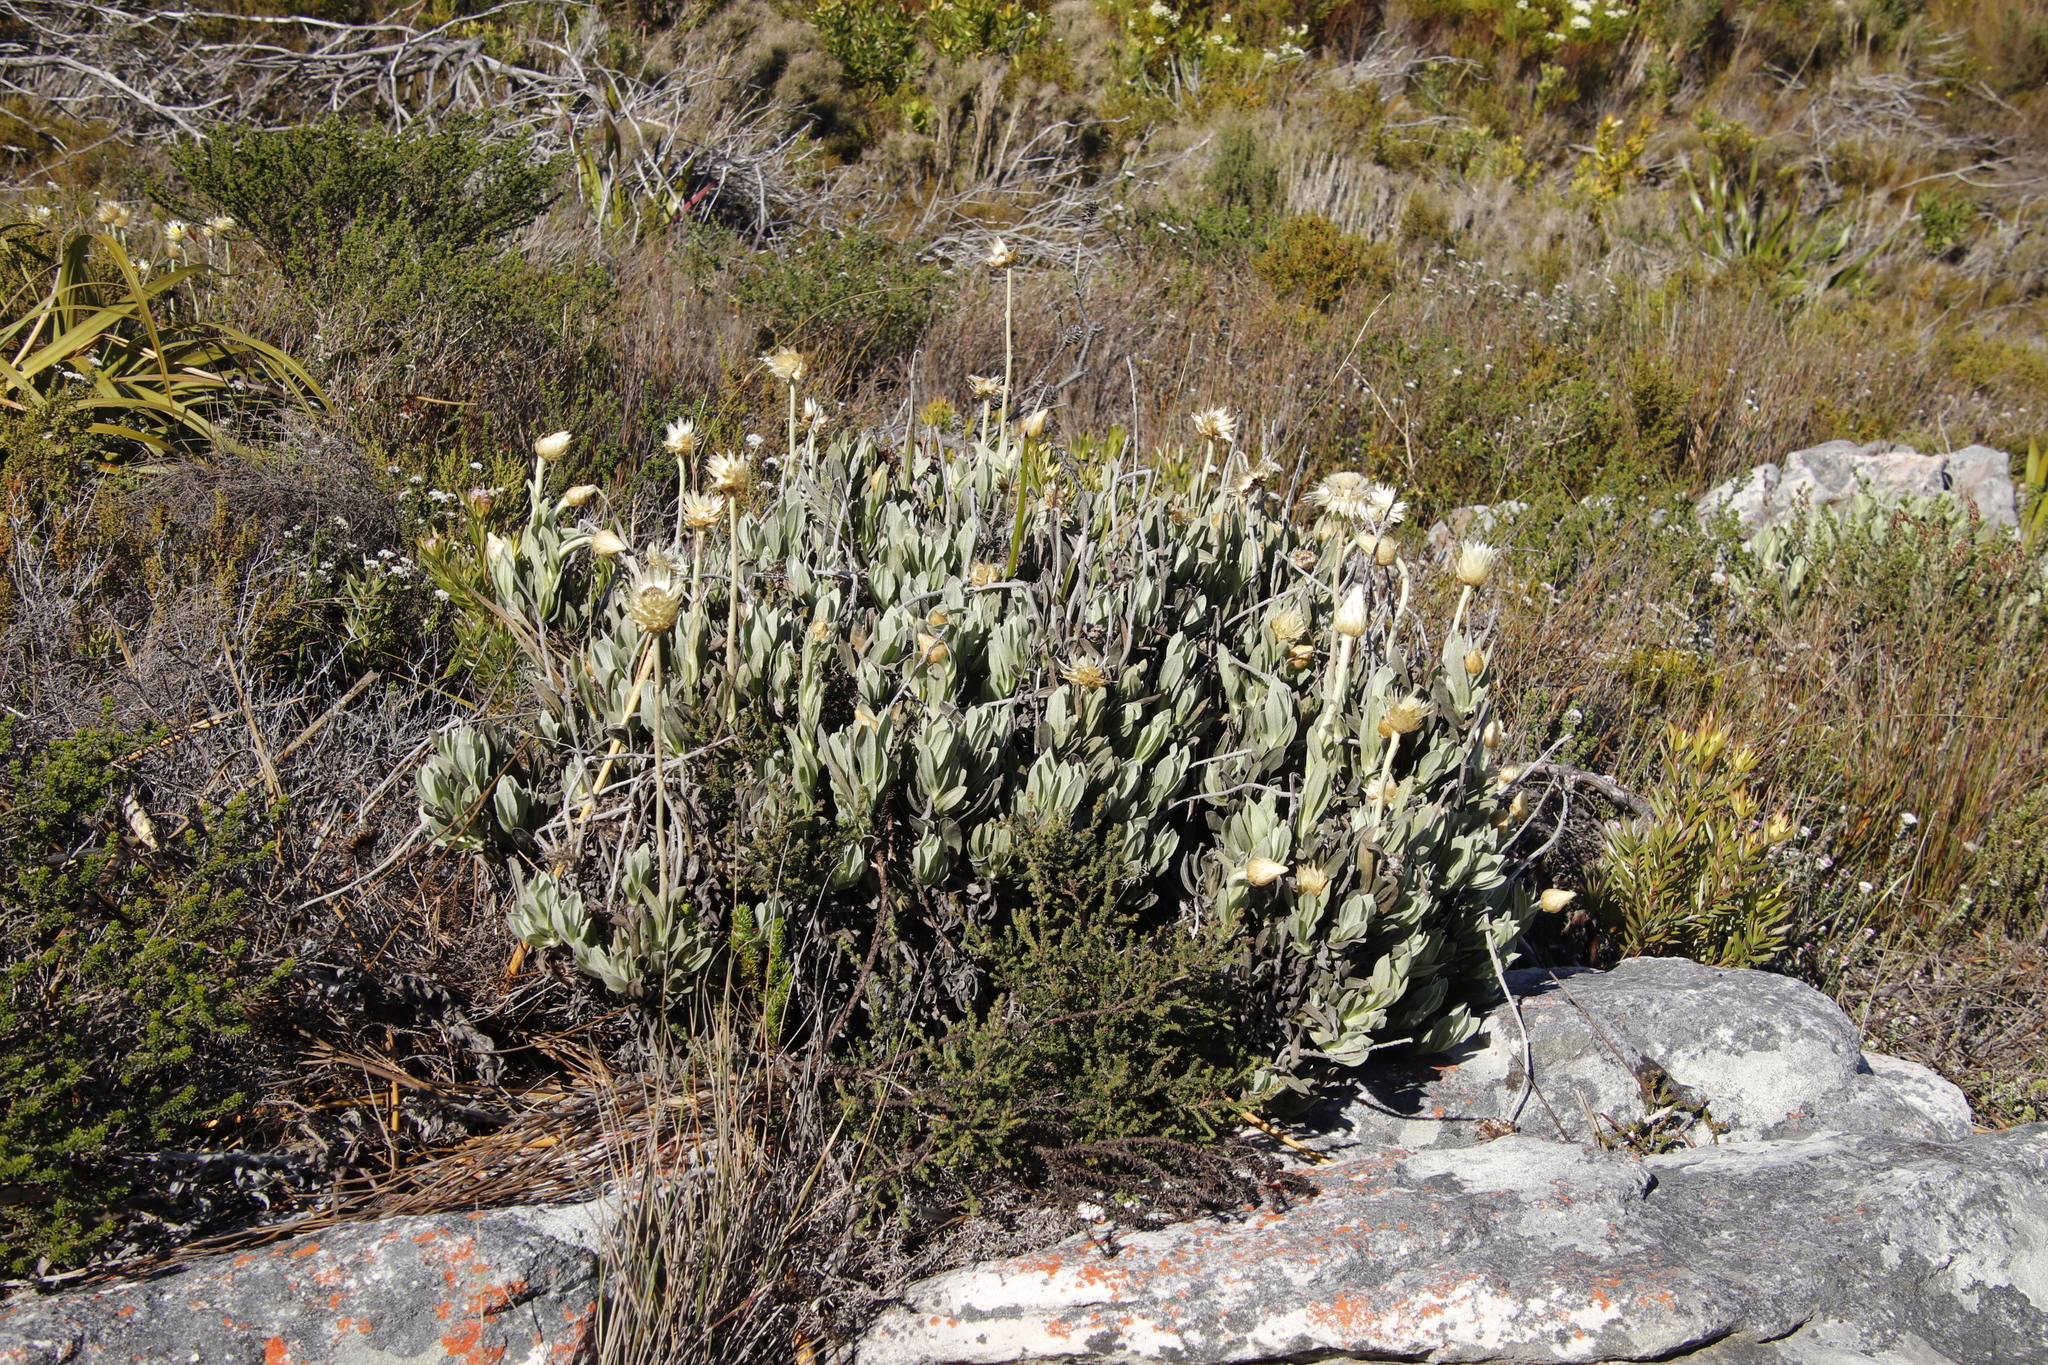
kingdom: Plantae
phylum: Tracheophyta
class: Magnoliopsida
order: Asterales
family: Asteraceae
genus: Syncarpha
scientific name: Syncarpha speciosissima
